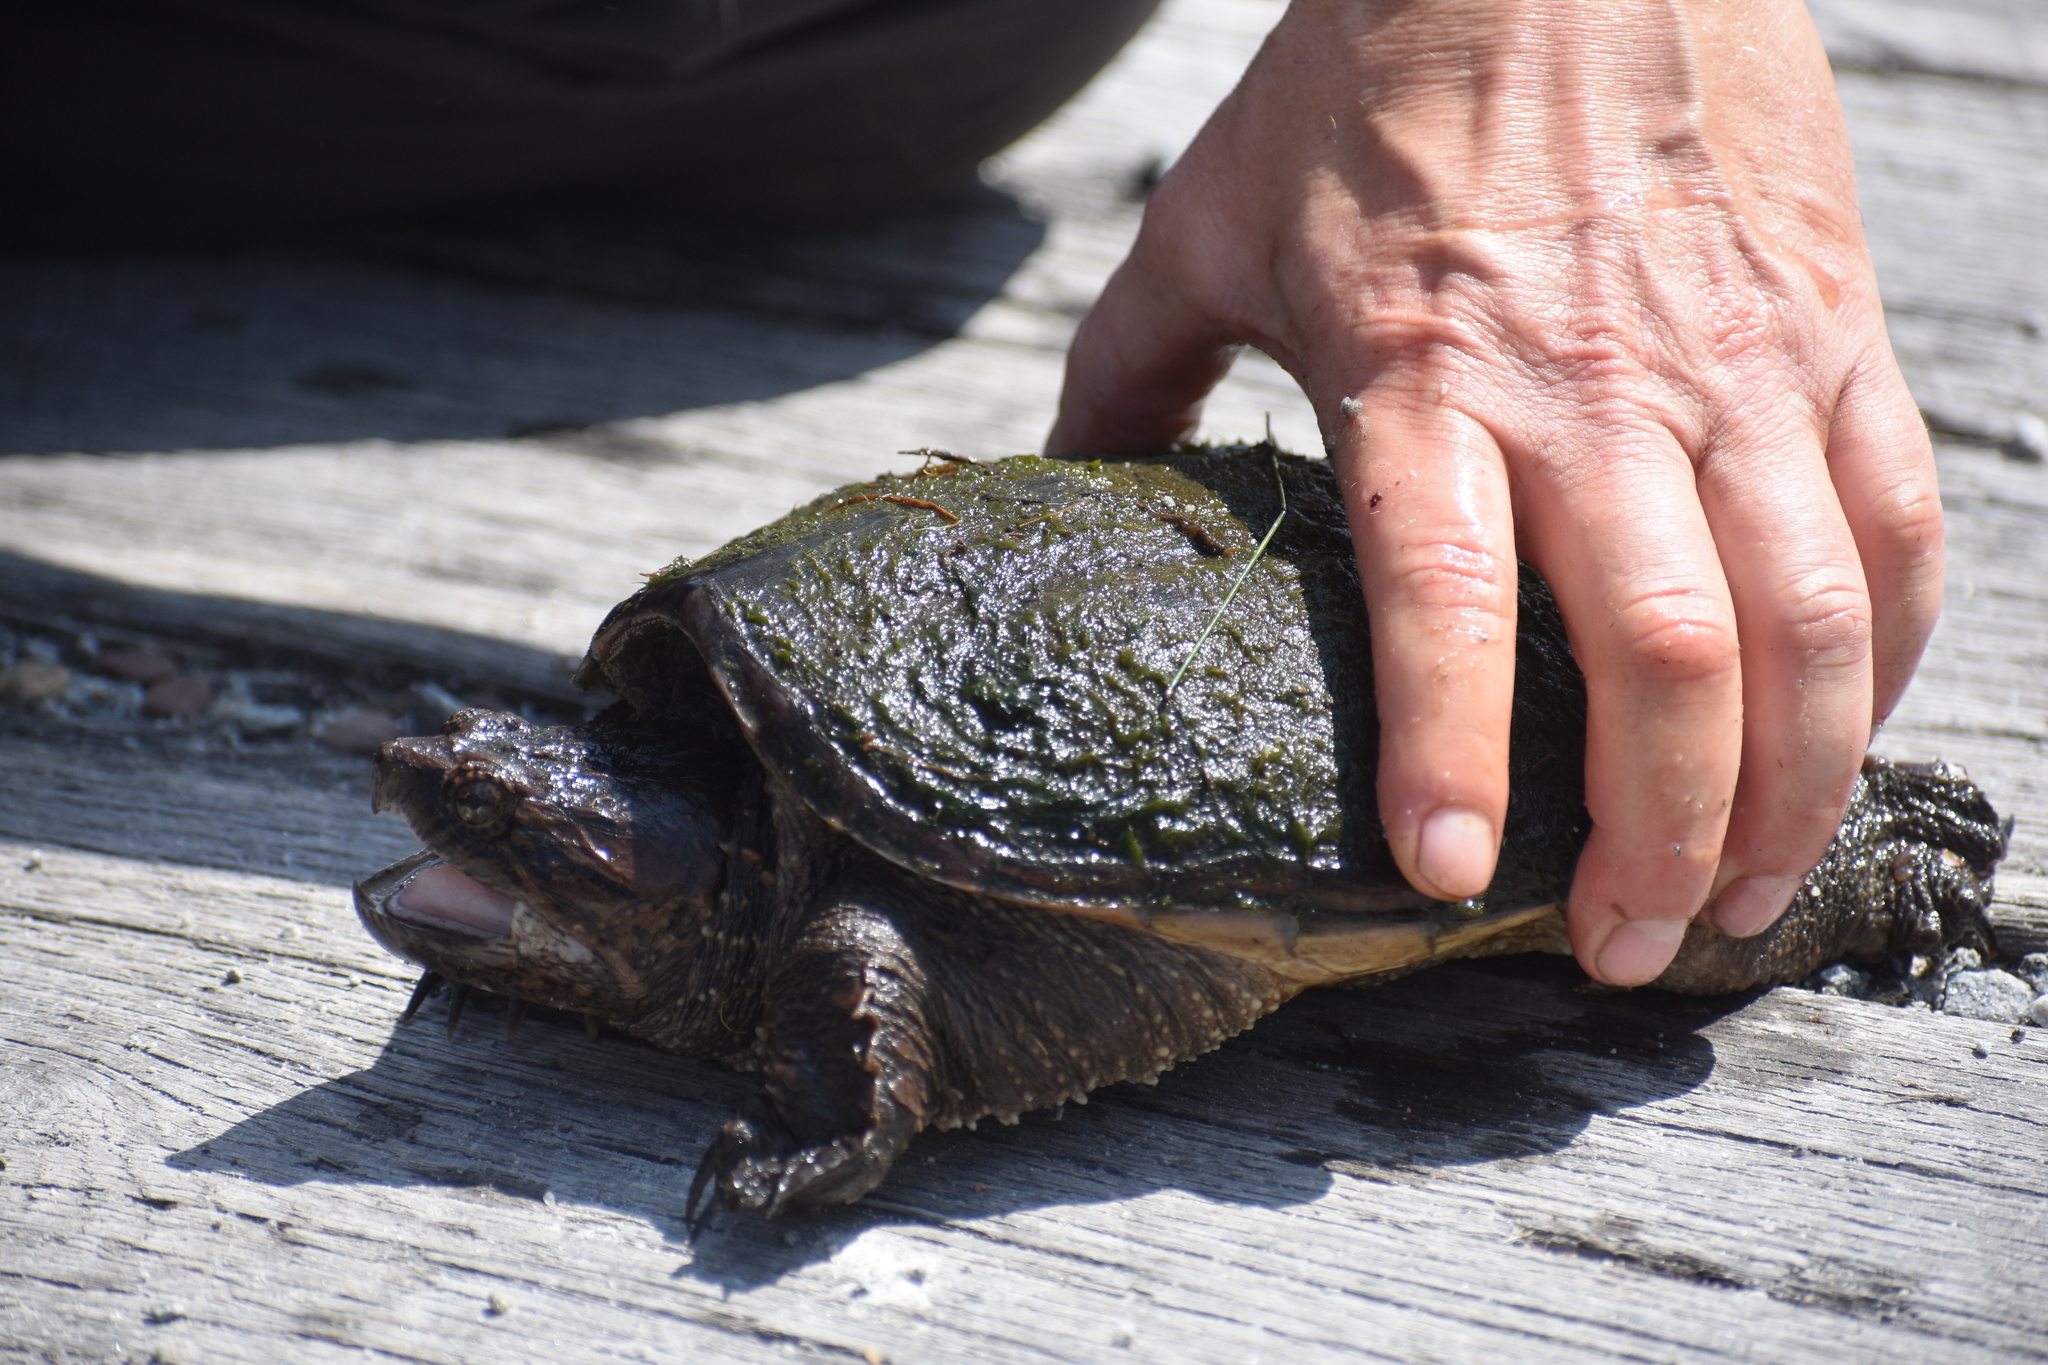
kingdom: Animalia
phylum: Chordata
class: Testudines
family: Chelydridae
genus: Chelydra
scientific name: Chelydra serpentina
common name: Common snapping turtle
